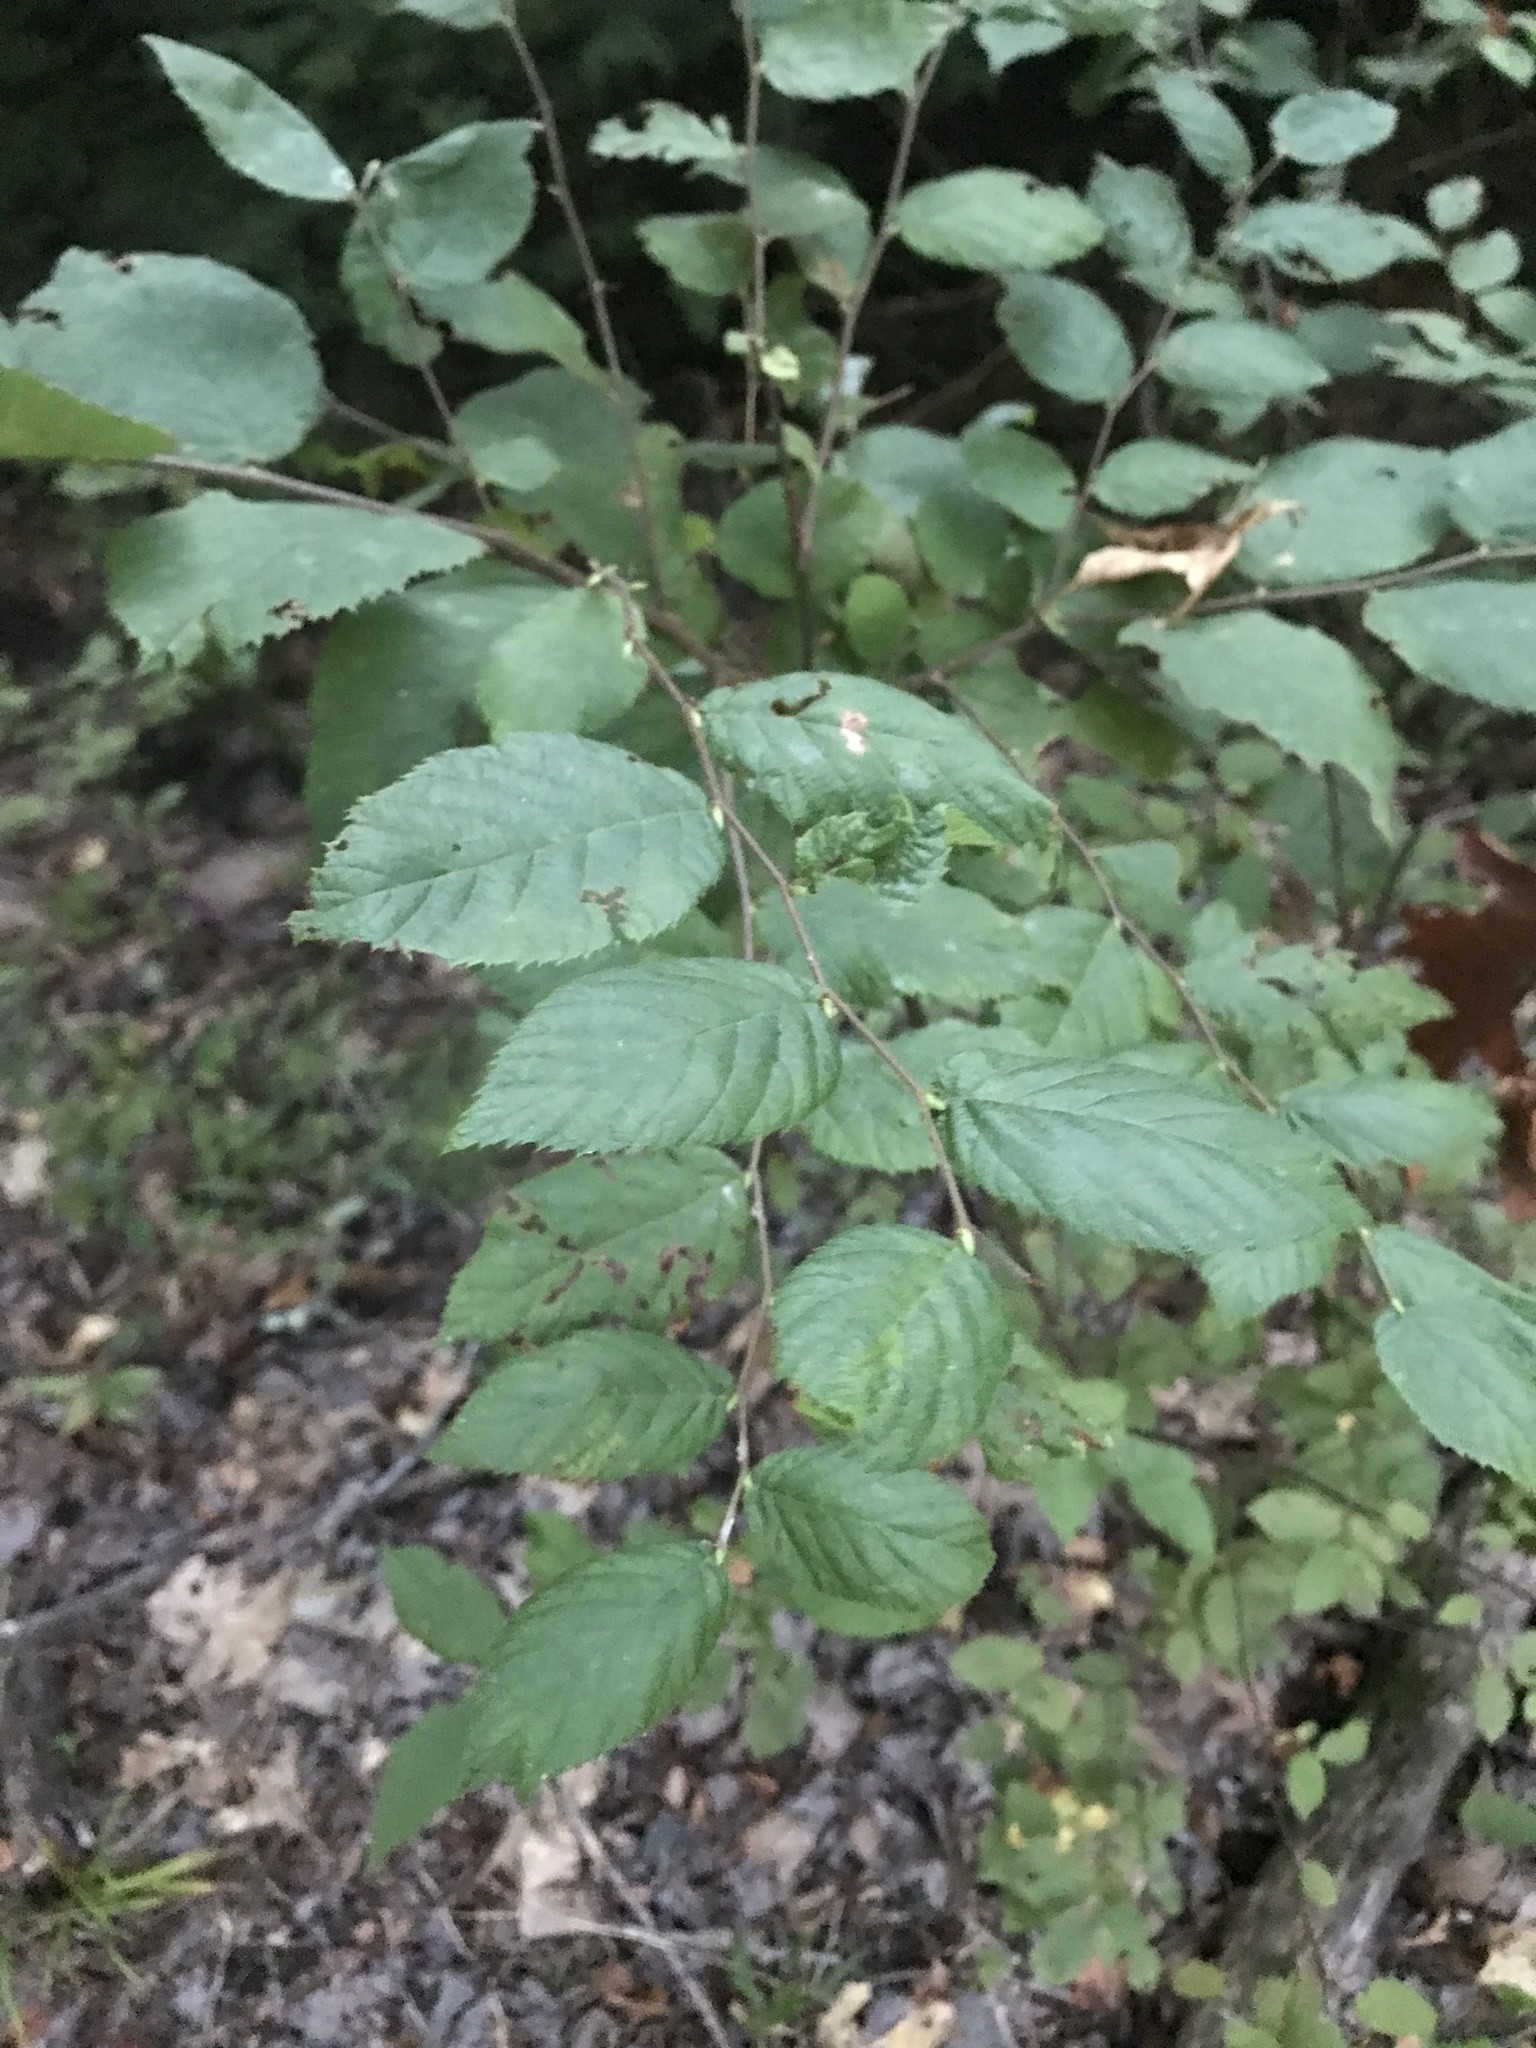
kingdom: Plantae
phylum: Tracheophyta
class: Magnoliopsida
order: Fagales
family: Betulaceae
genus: Ostrya
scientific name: Ostrya virginiana
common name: Ironwood
